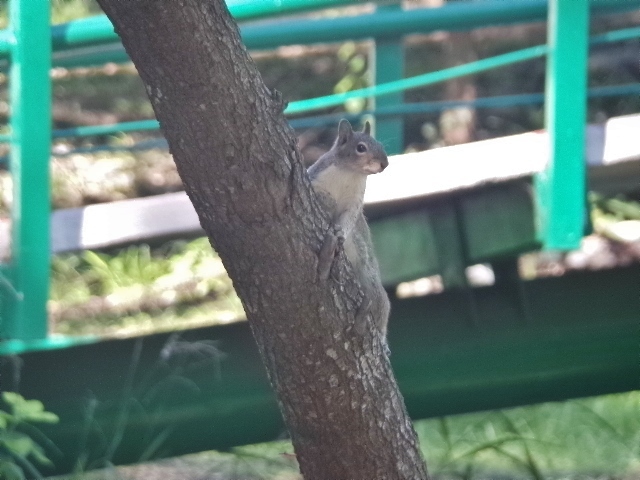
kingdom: Animalia
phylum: Chordata
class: Mammalia
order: Rodentia
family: Sciuridae
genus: Sciurus
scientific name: Sciurus alleni
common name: Allen's squirrel
